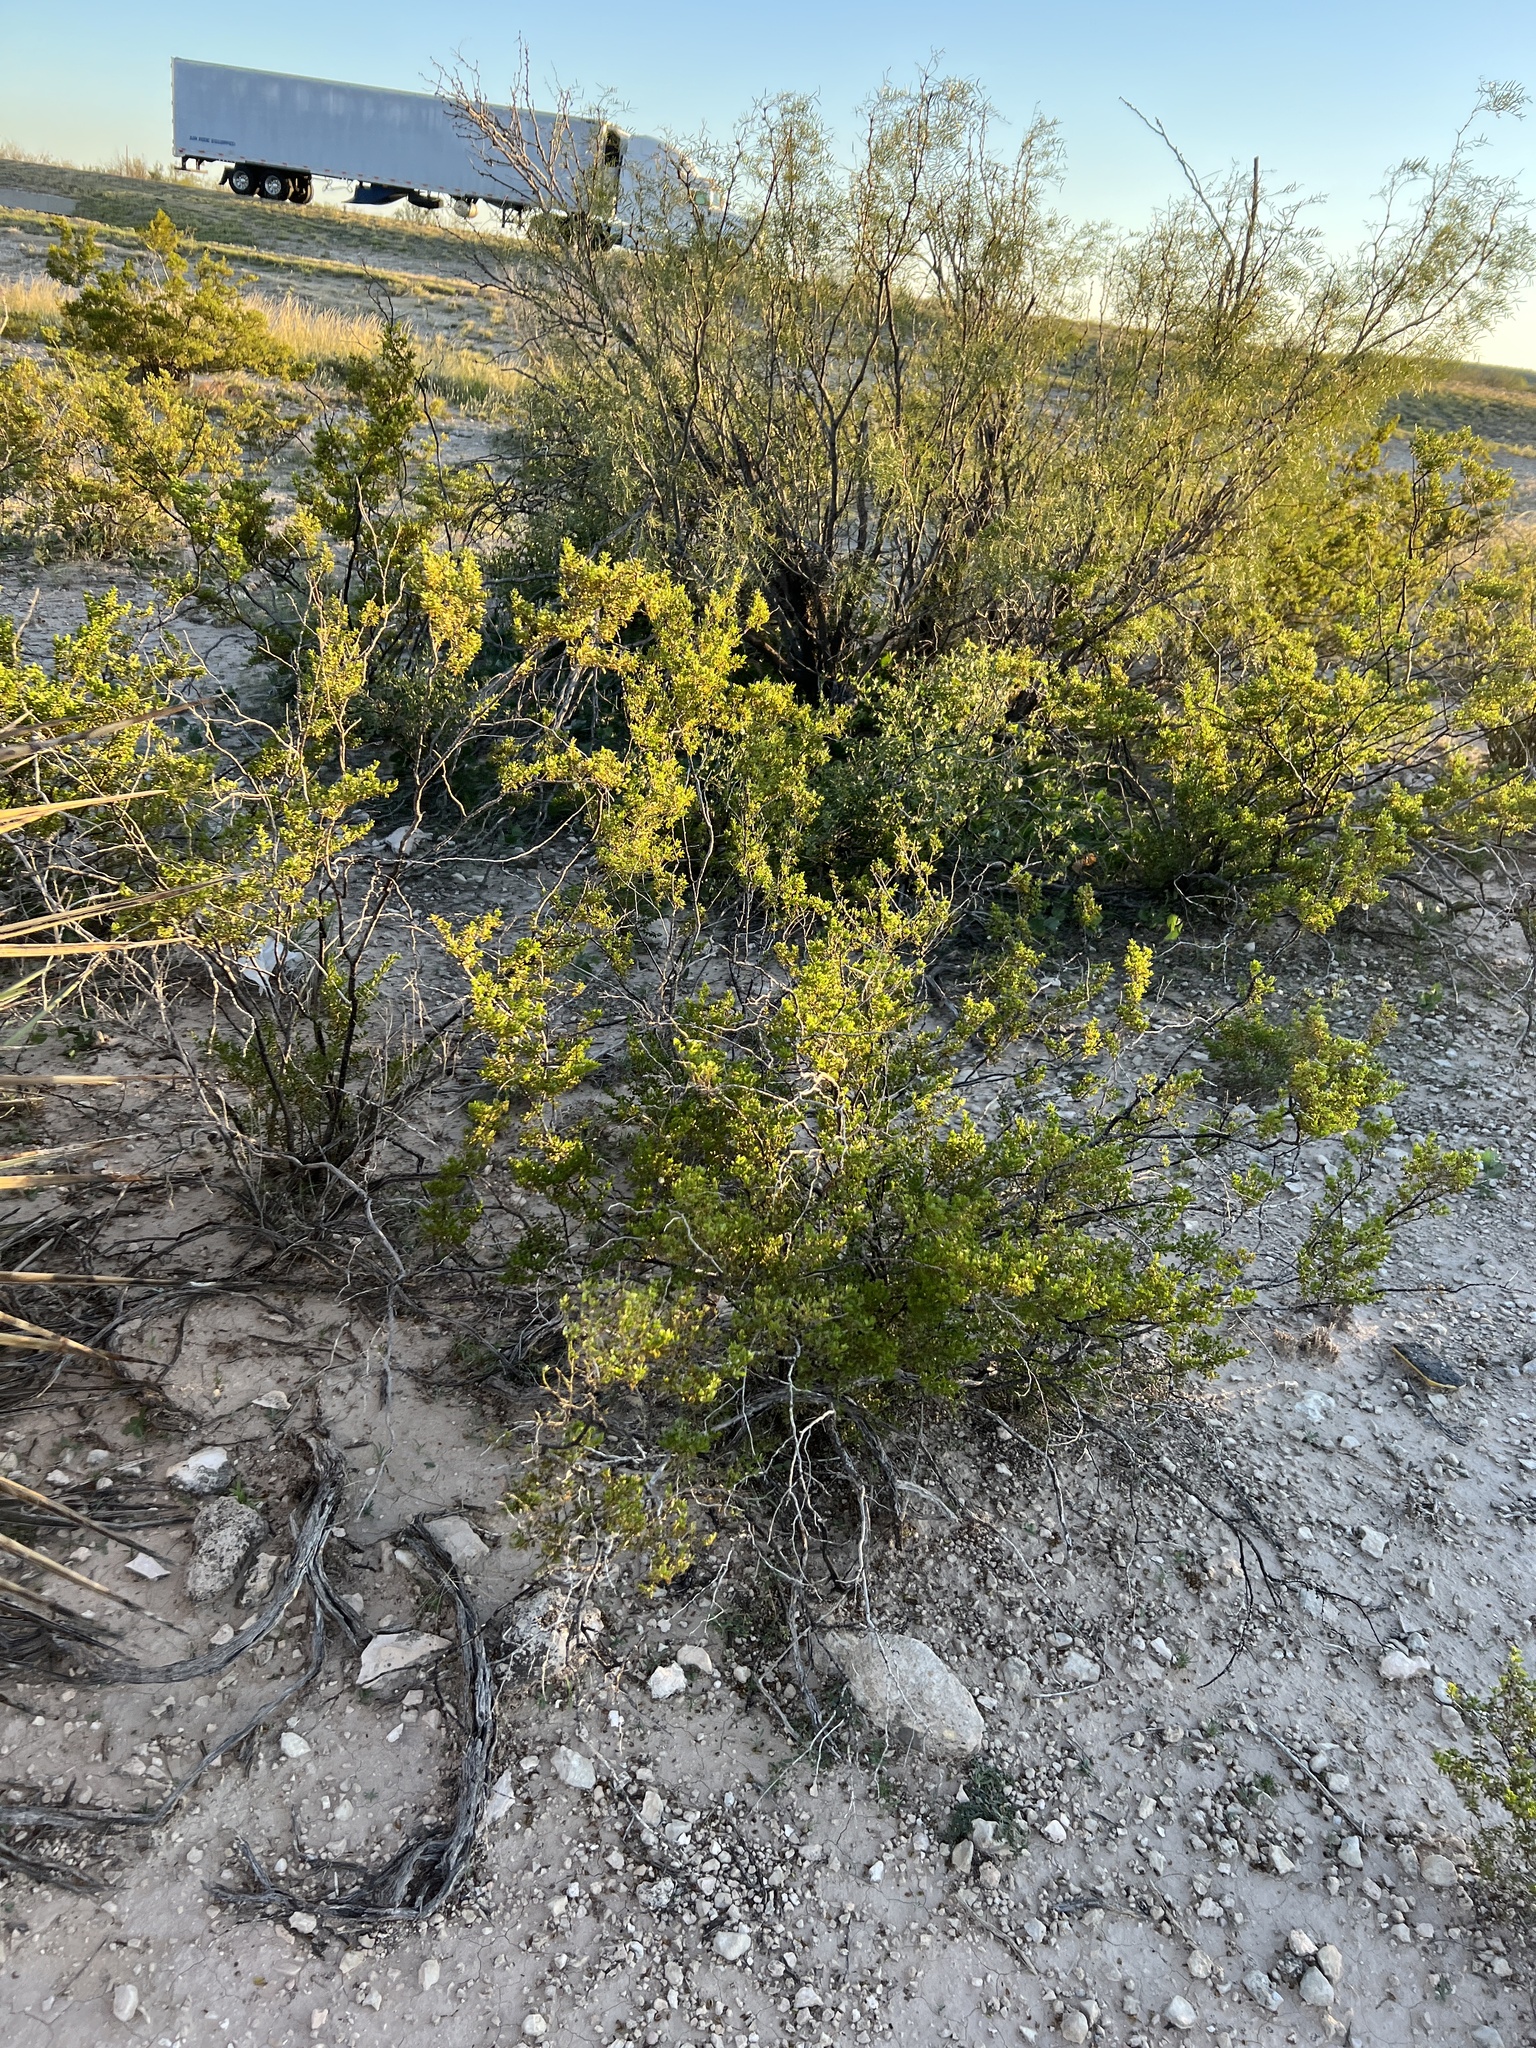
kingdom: Plantae
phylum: Tracheophyta
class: Magnoliopsida
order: Zygophyllales
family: Zygophyllaceae
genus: Larrea
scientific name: Larrea tridentata
